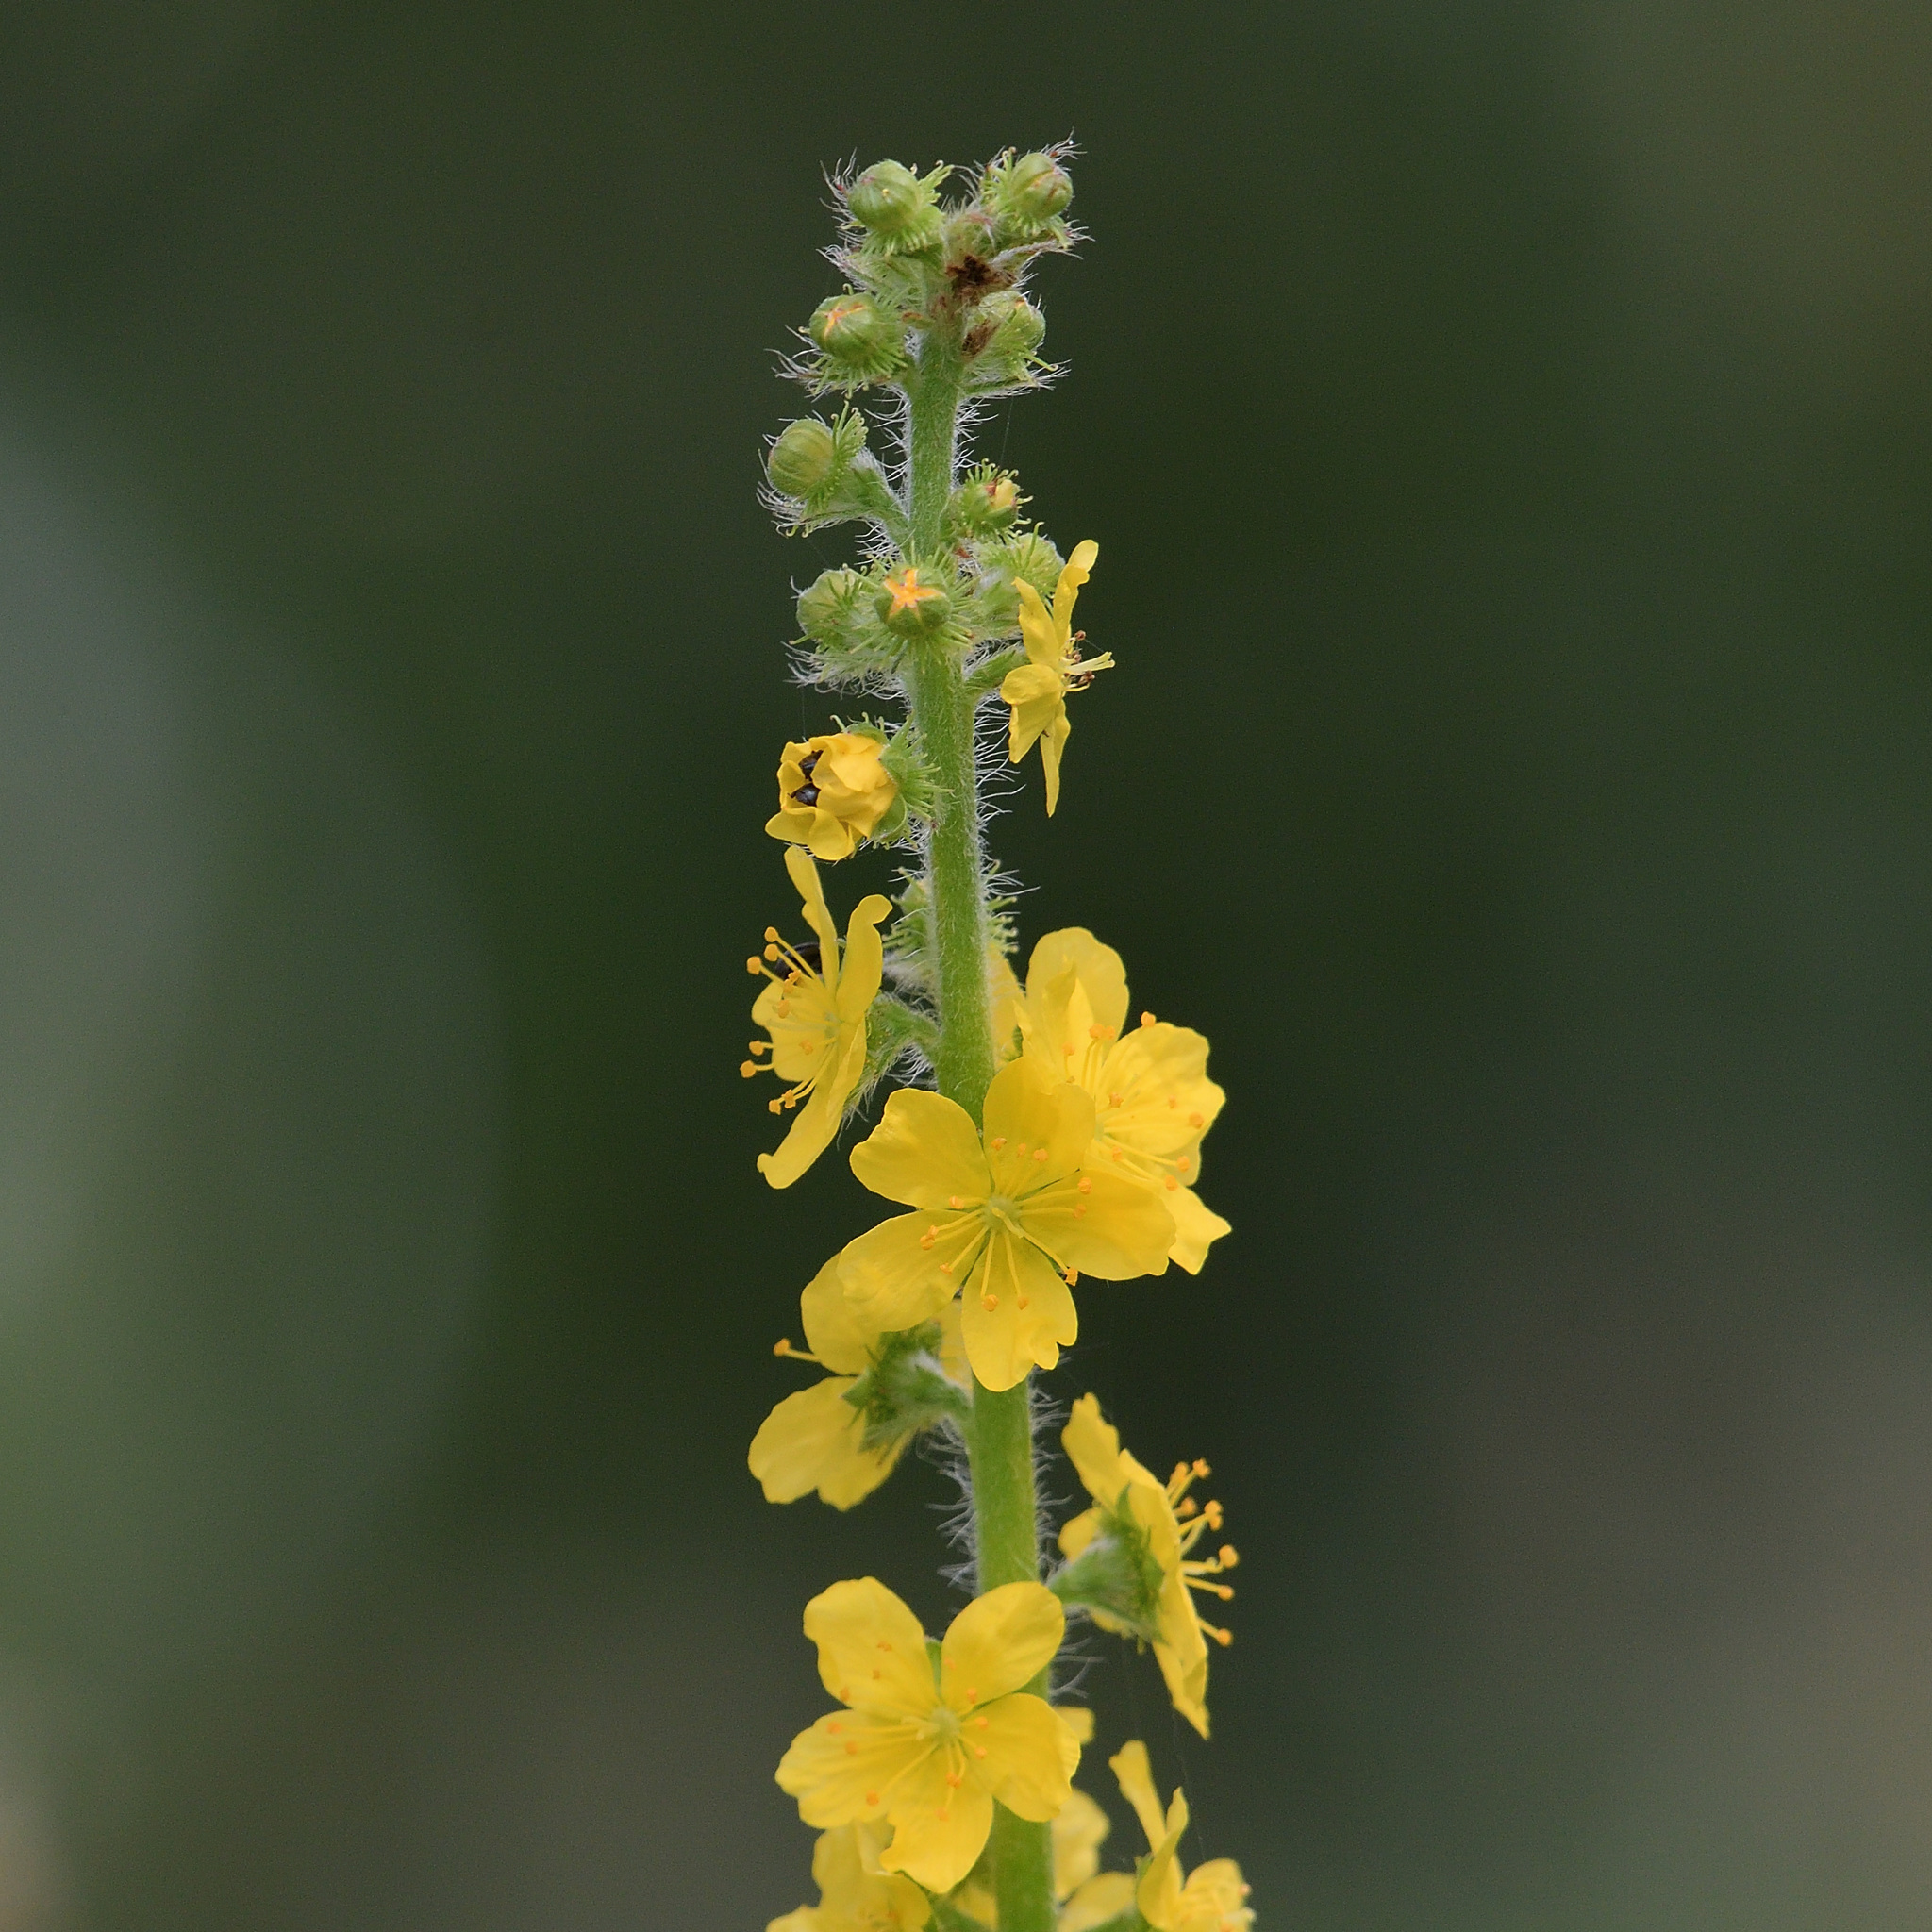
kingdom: Plantae
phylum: Tracheophyta
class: Magnoliopsida
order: Rosales
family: Rosaceae
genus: Agrimonia
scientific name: Agrimonia eupatoria
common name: Agrimony
